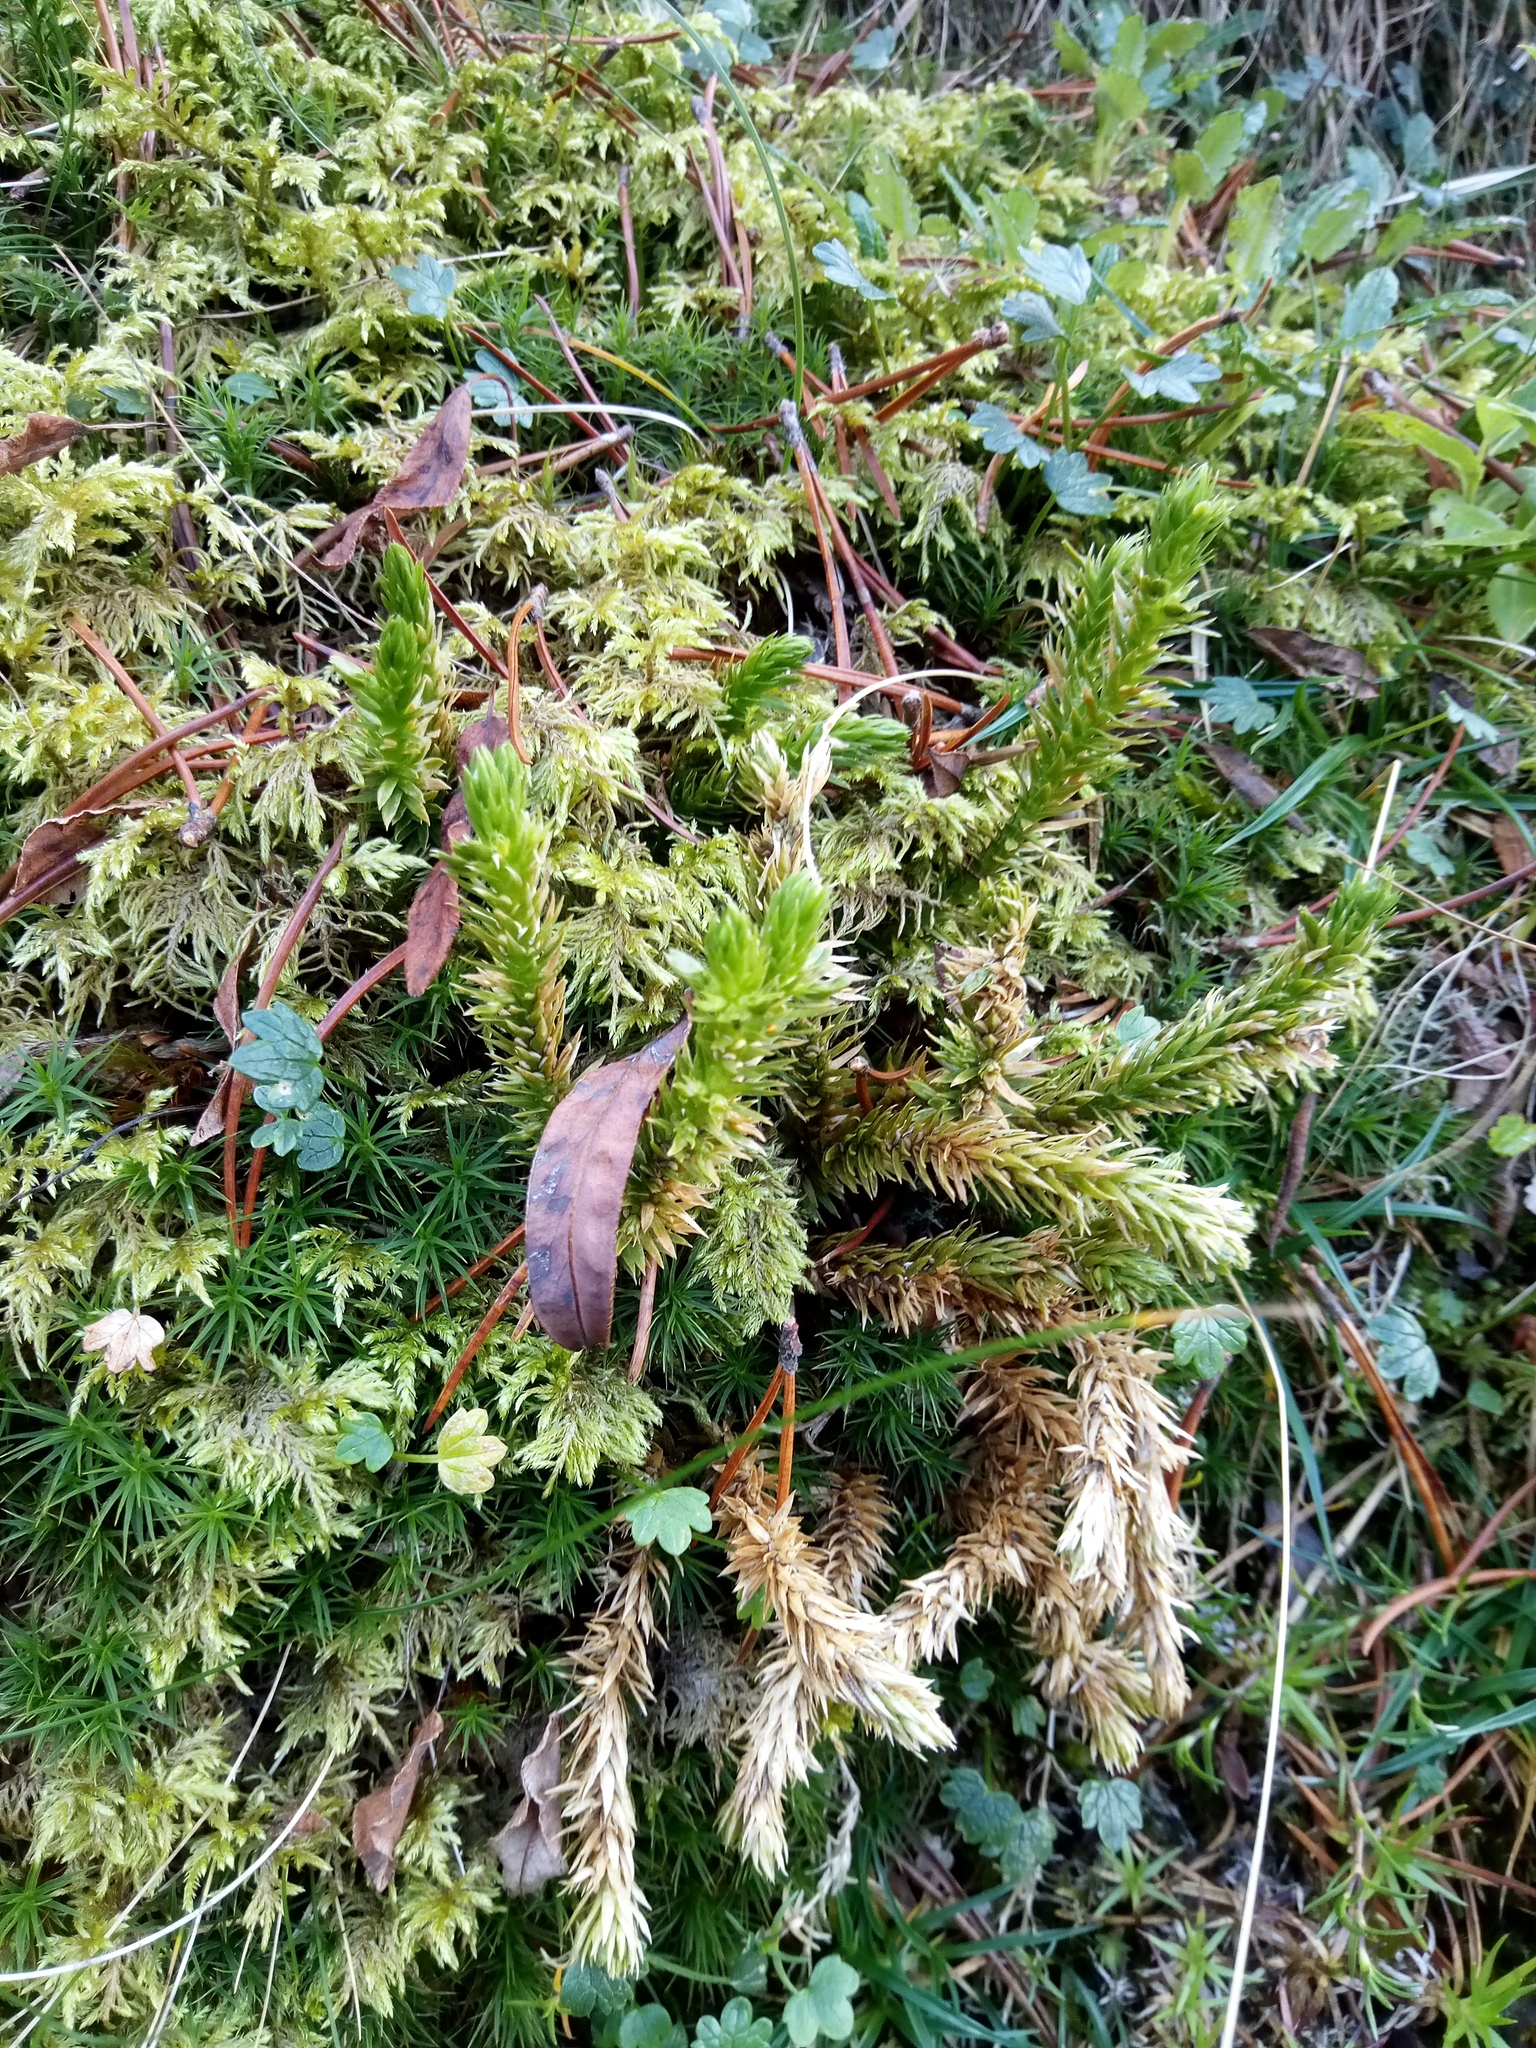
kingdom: Plantae
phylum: Tracheophyta
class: Lycopodiopsida
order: Lycopodiales
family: Lycopodiaceae
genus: Huperzia
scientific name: Huperzia selago
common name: Northern firmoss
